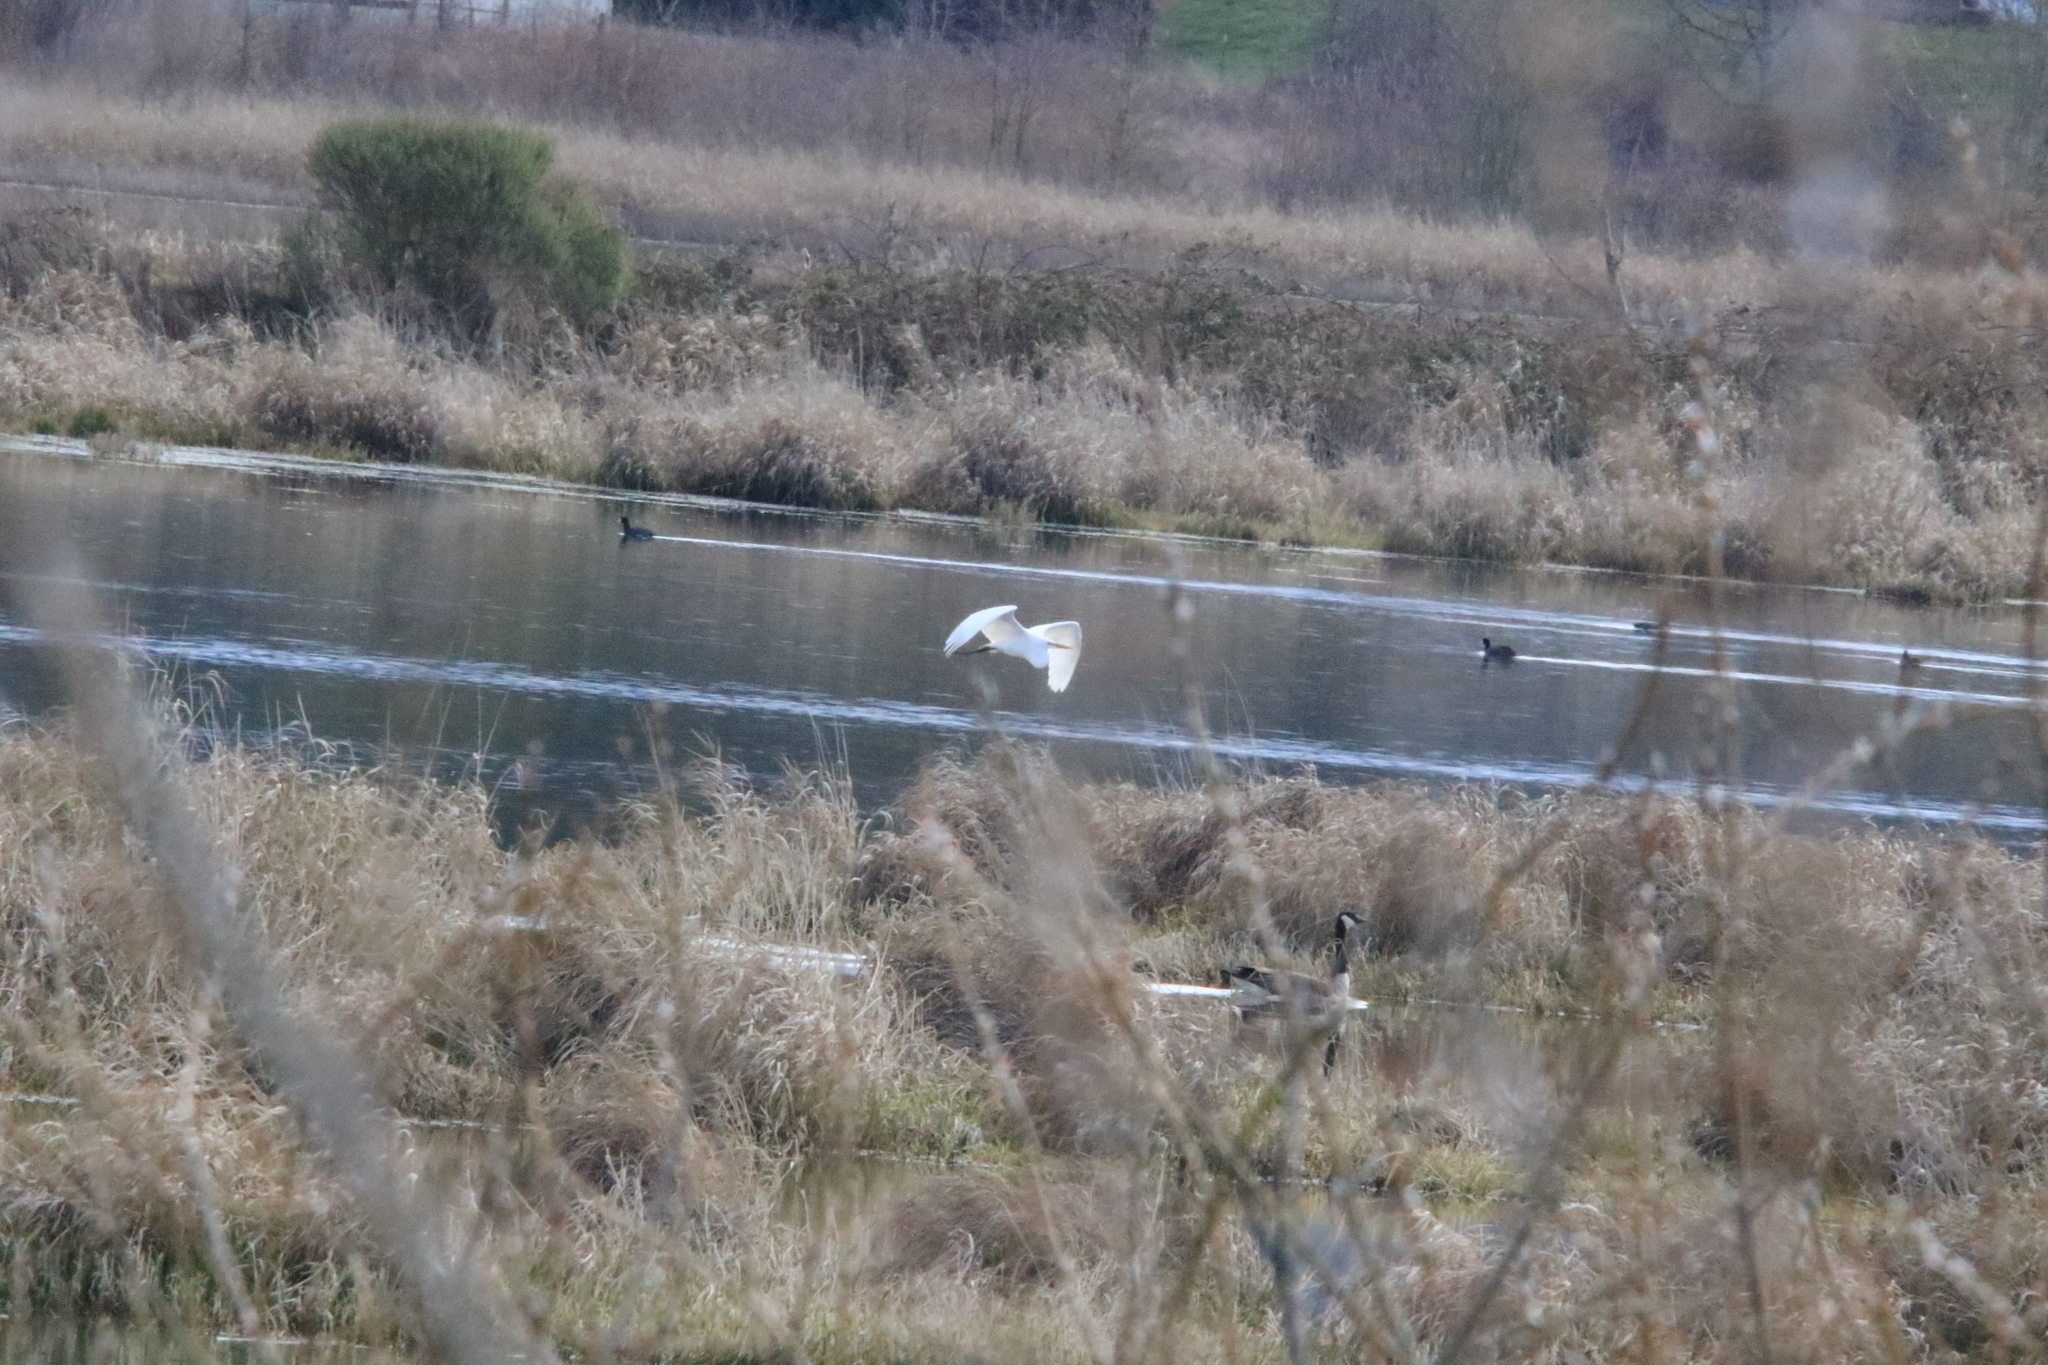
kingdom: Animalia
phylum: Chordata
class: Aves
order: Pelecaniformes
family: Ardeidae
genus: Ardea
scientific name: Ardea alba
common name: Great egret
